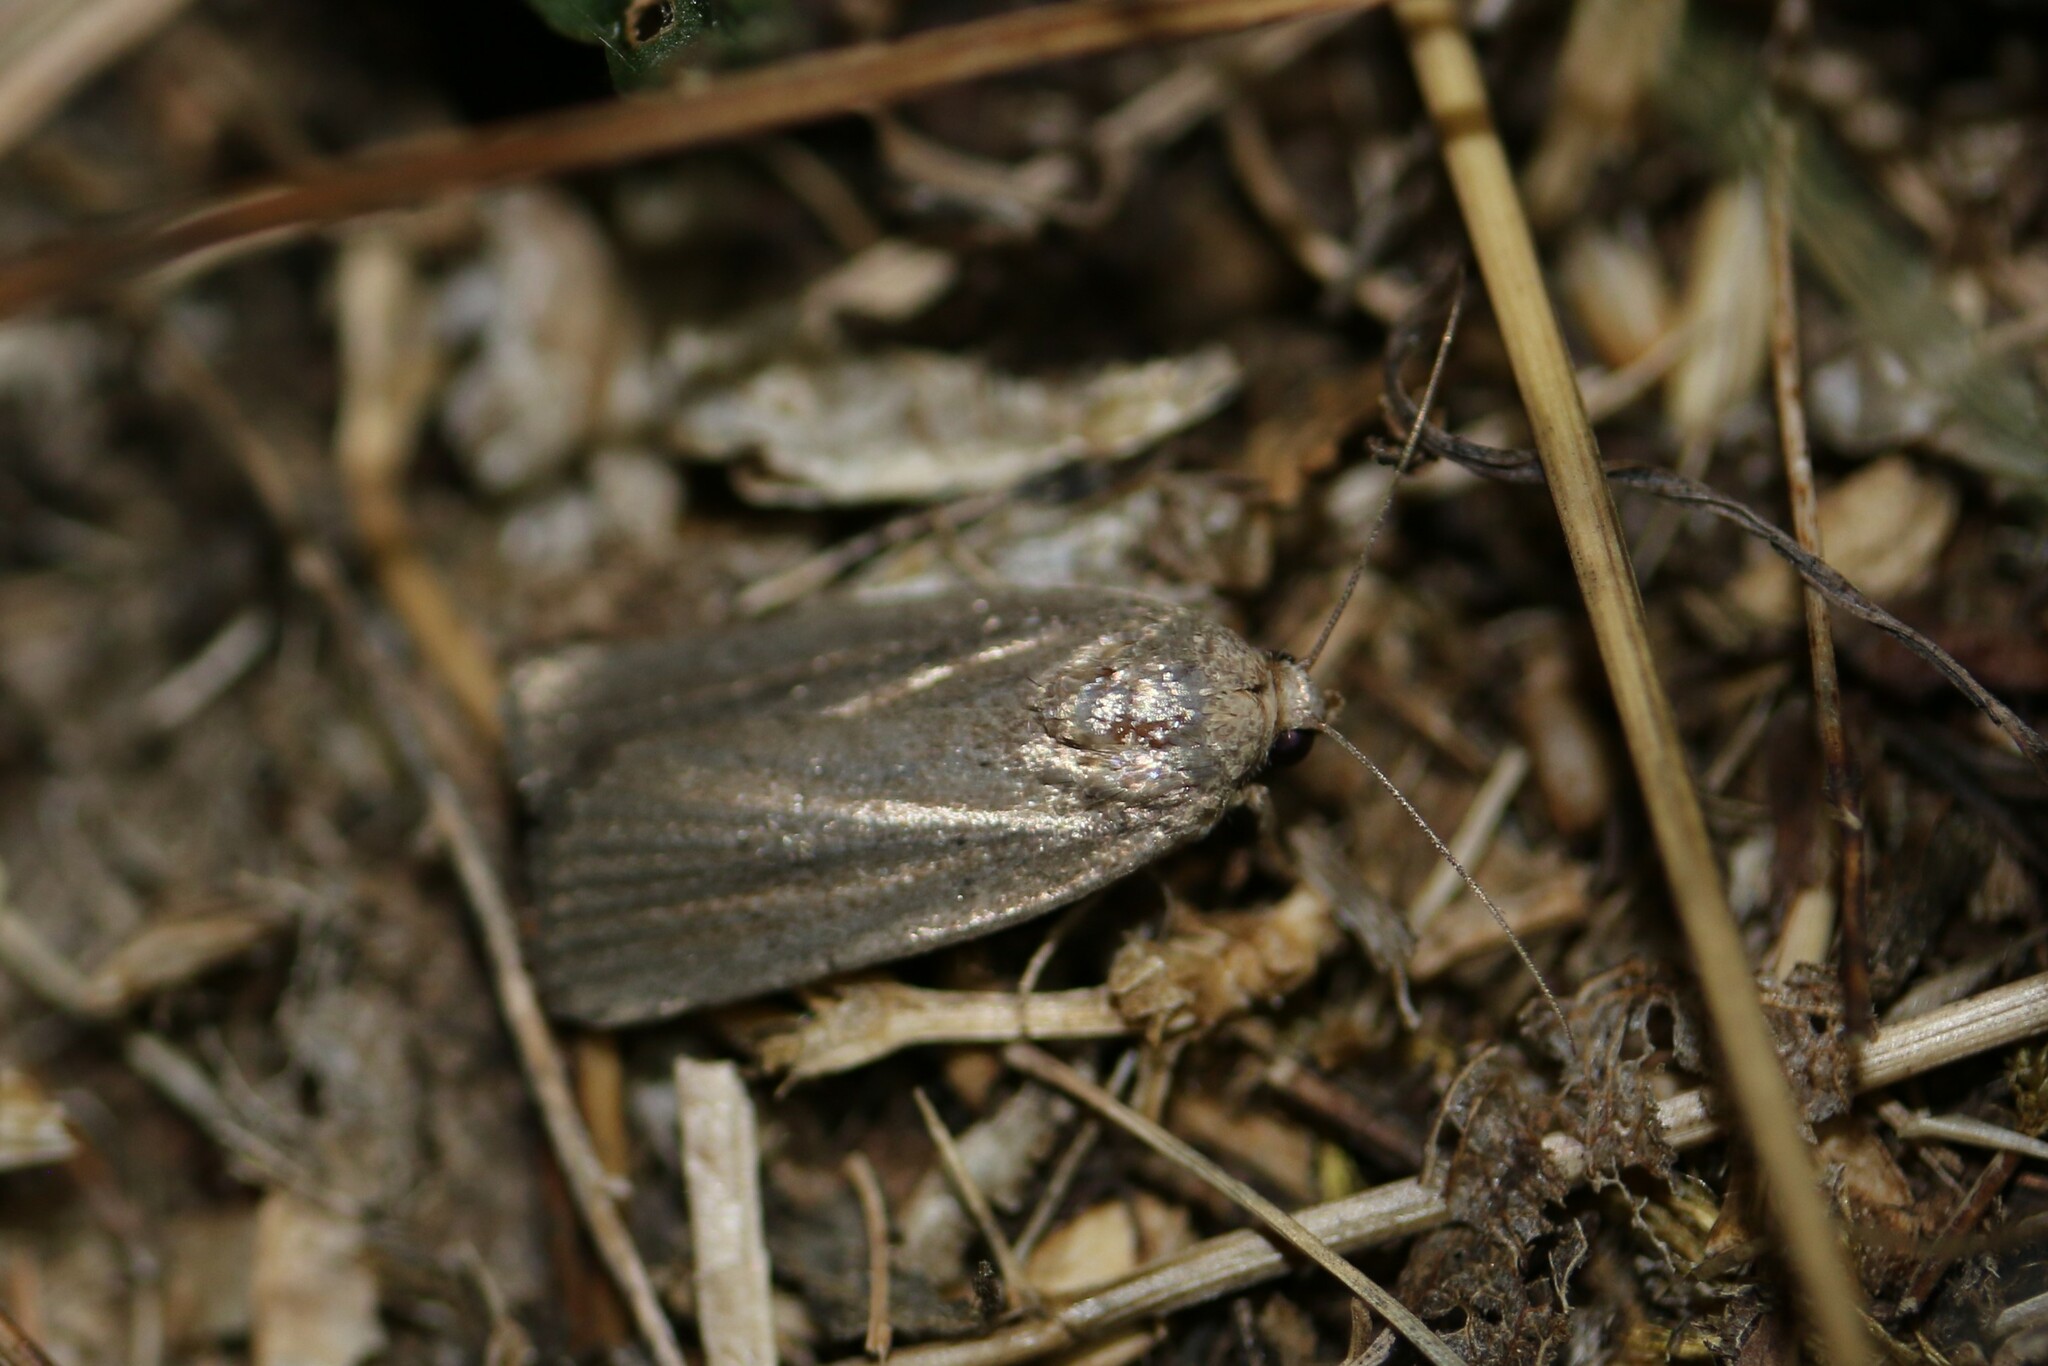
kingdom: Animalia
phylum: Arthropoda
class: Insecta
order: Lepidoptera
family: Noctuidae
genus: Athetis
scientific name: Athetis hospes
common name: Porter's rustic
